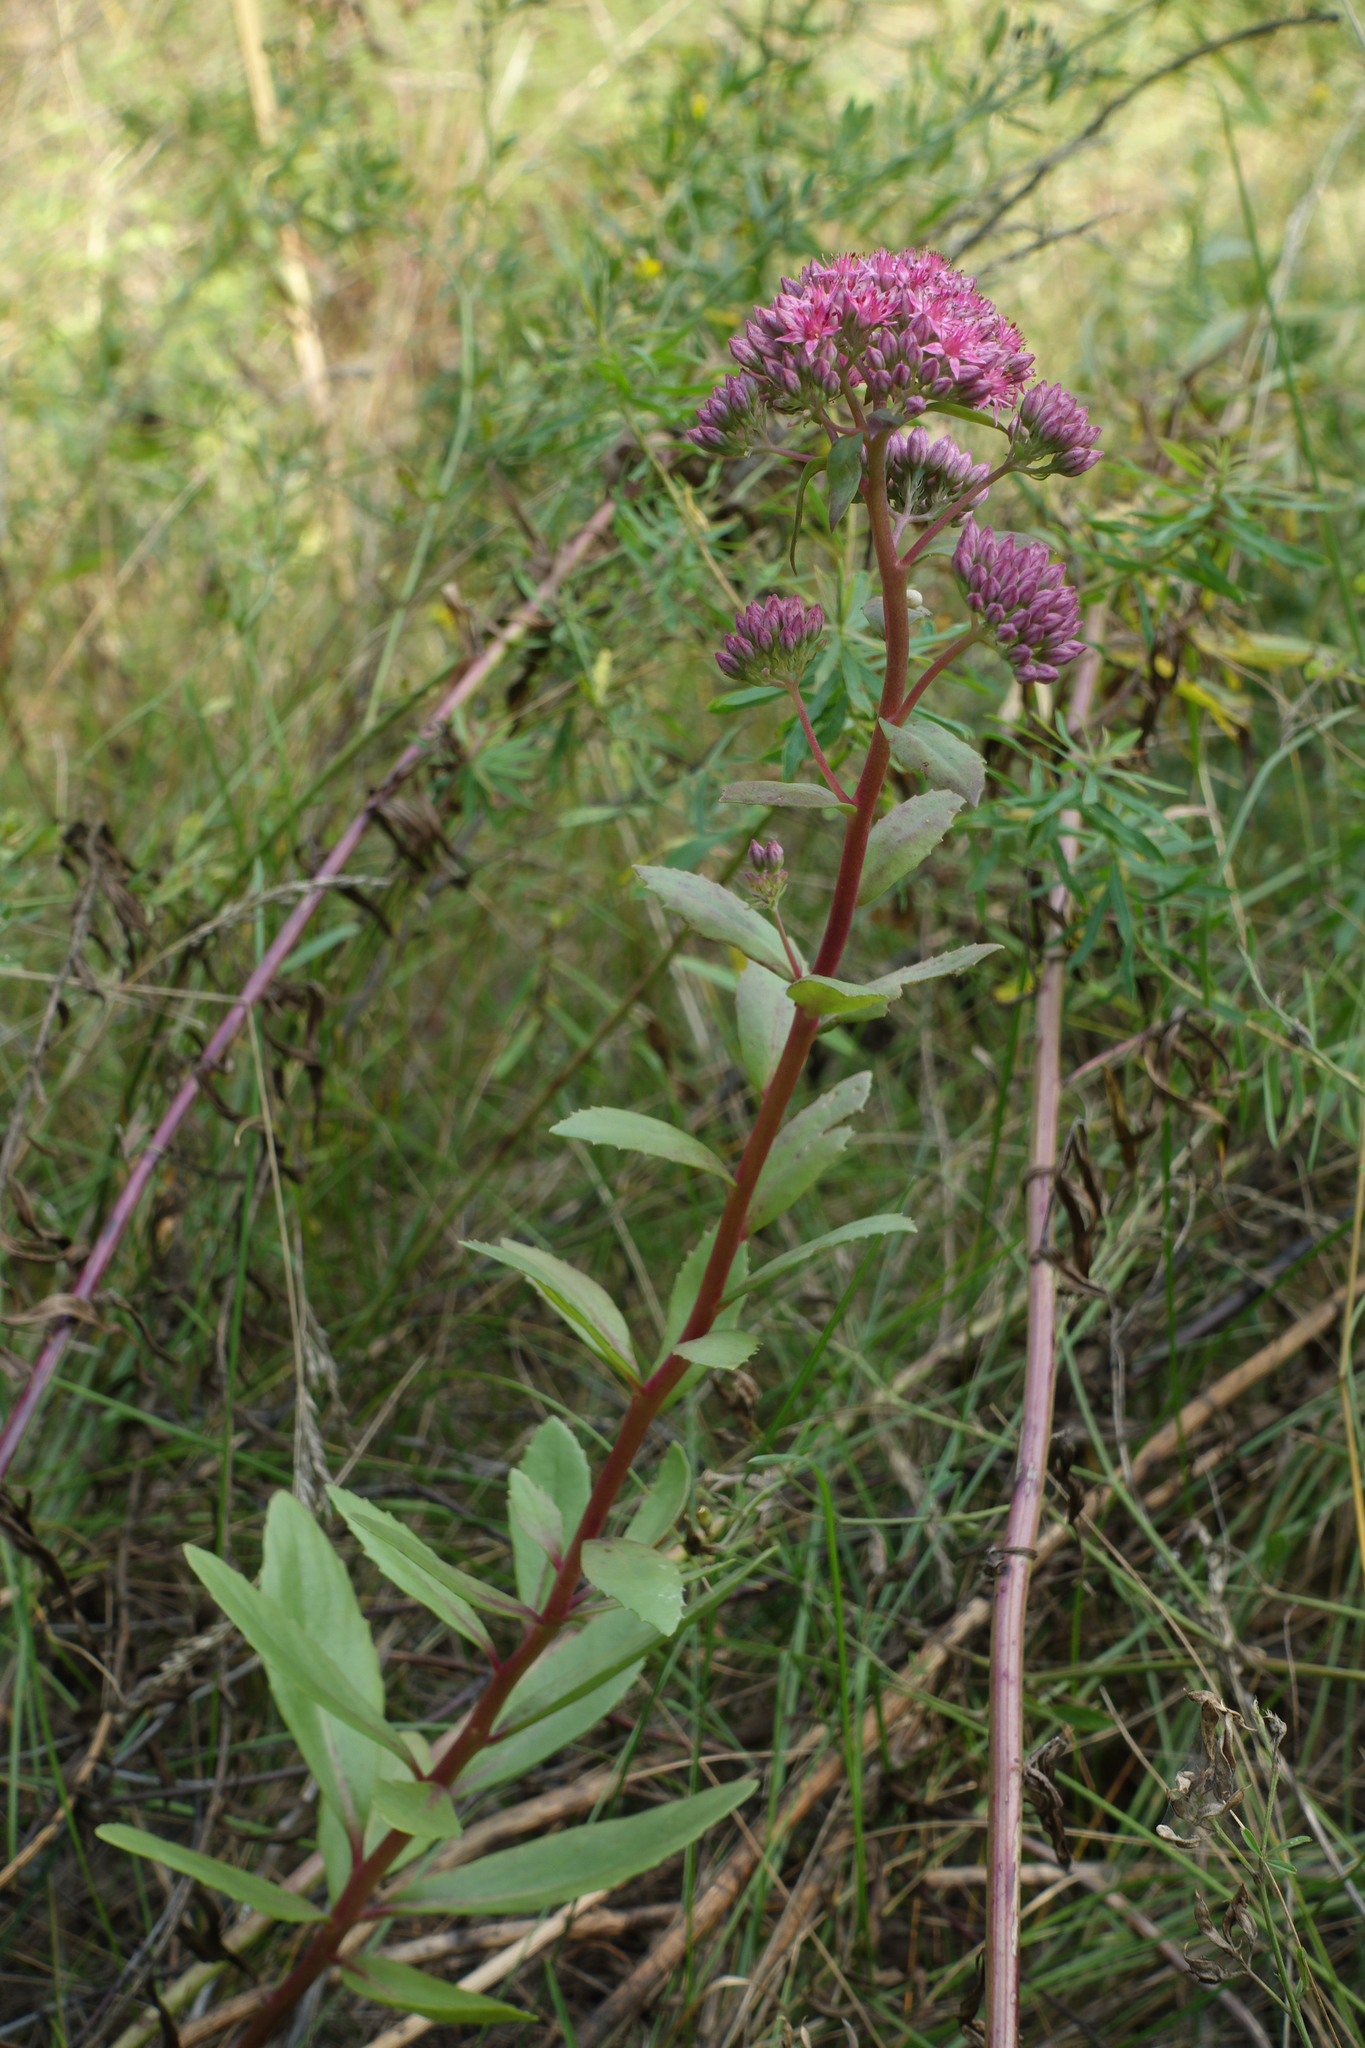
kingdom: Plantae
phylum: Tracheophyta
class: Magnoliopsida
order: Saxifragales
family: Crassulaceae
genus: Hylotelephium
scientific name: Hylotelephium telephium
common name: Live-forever
